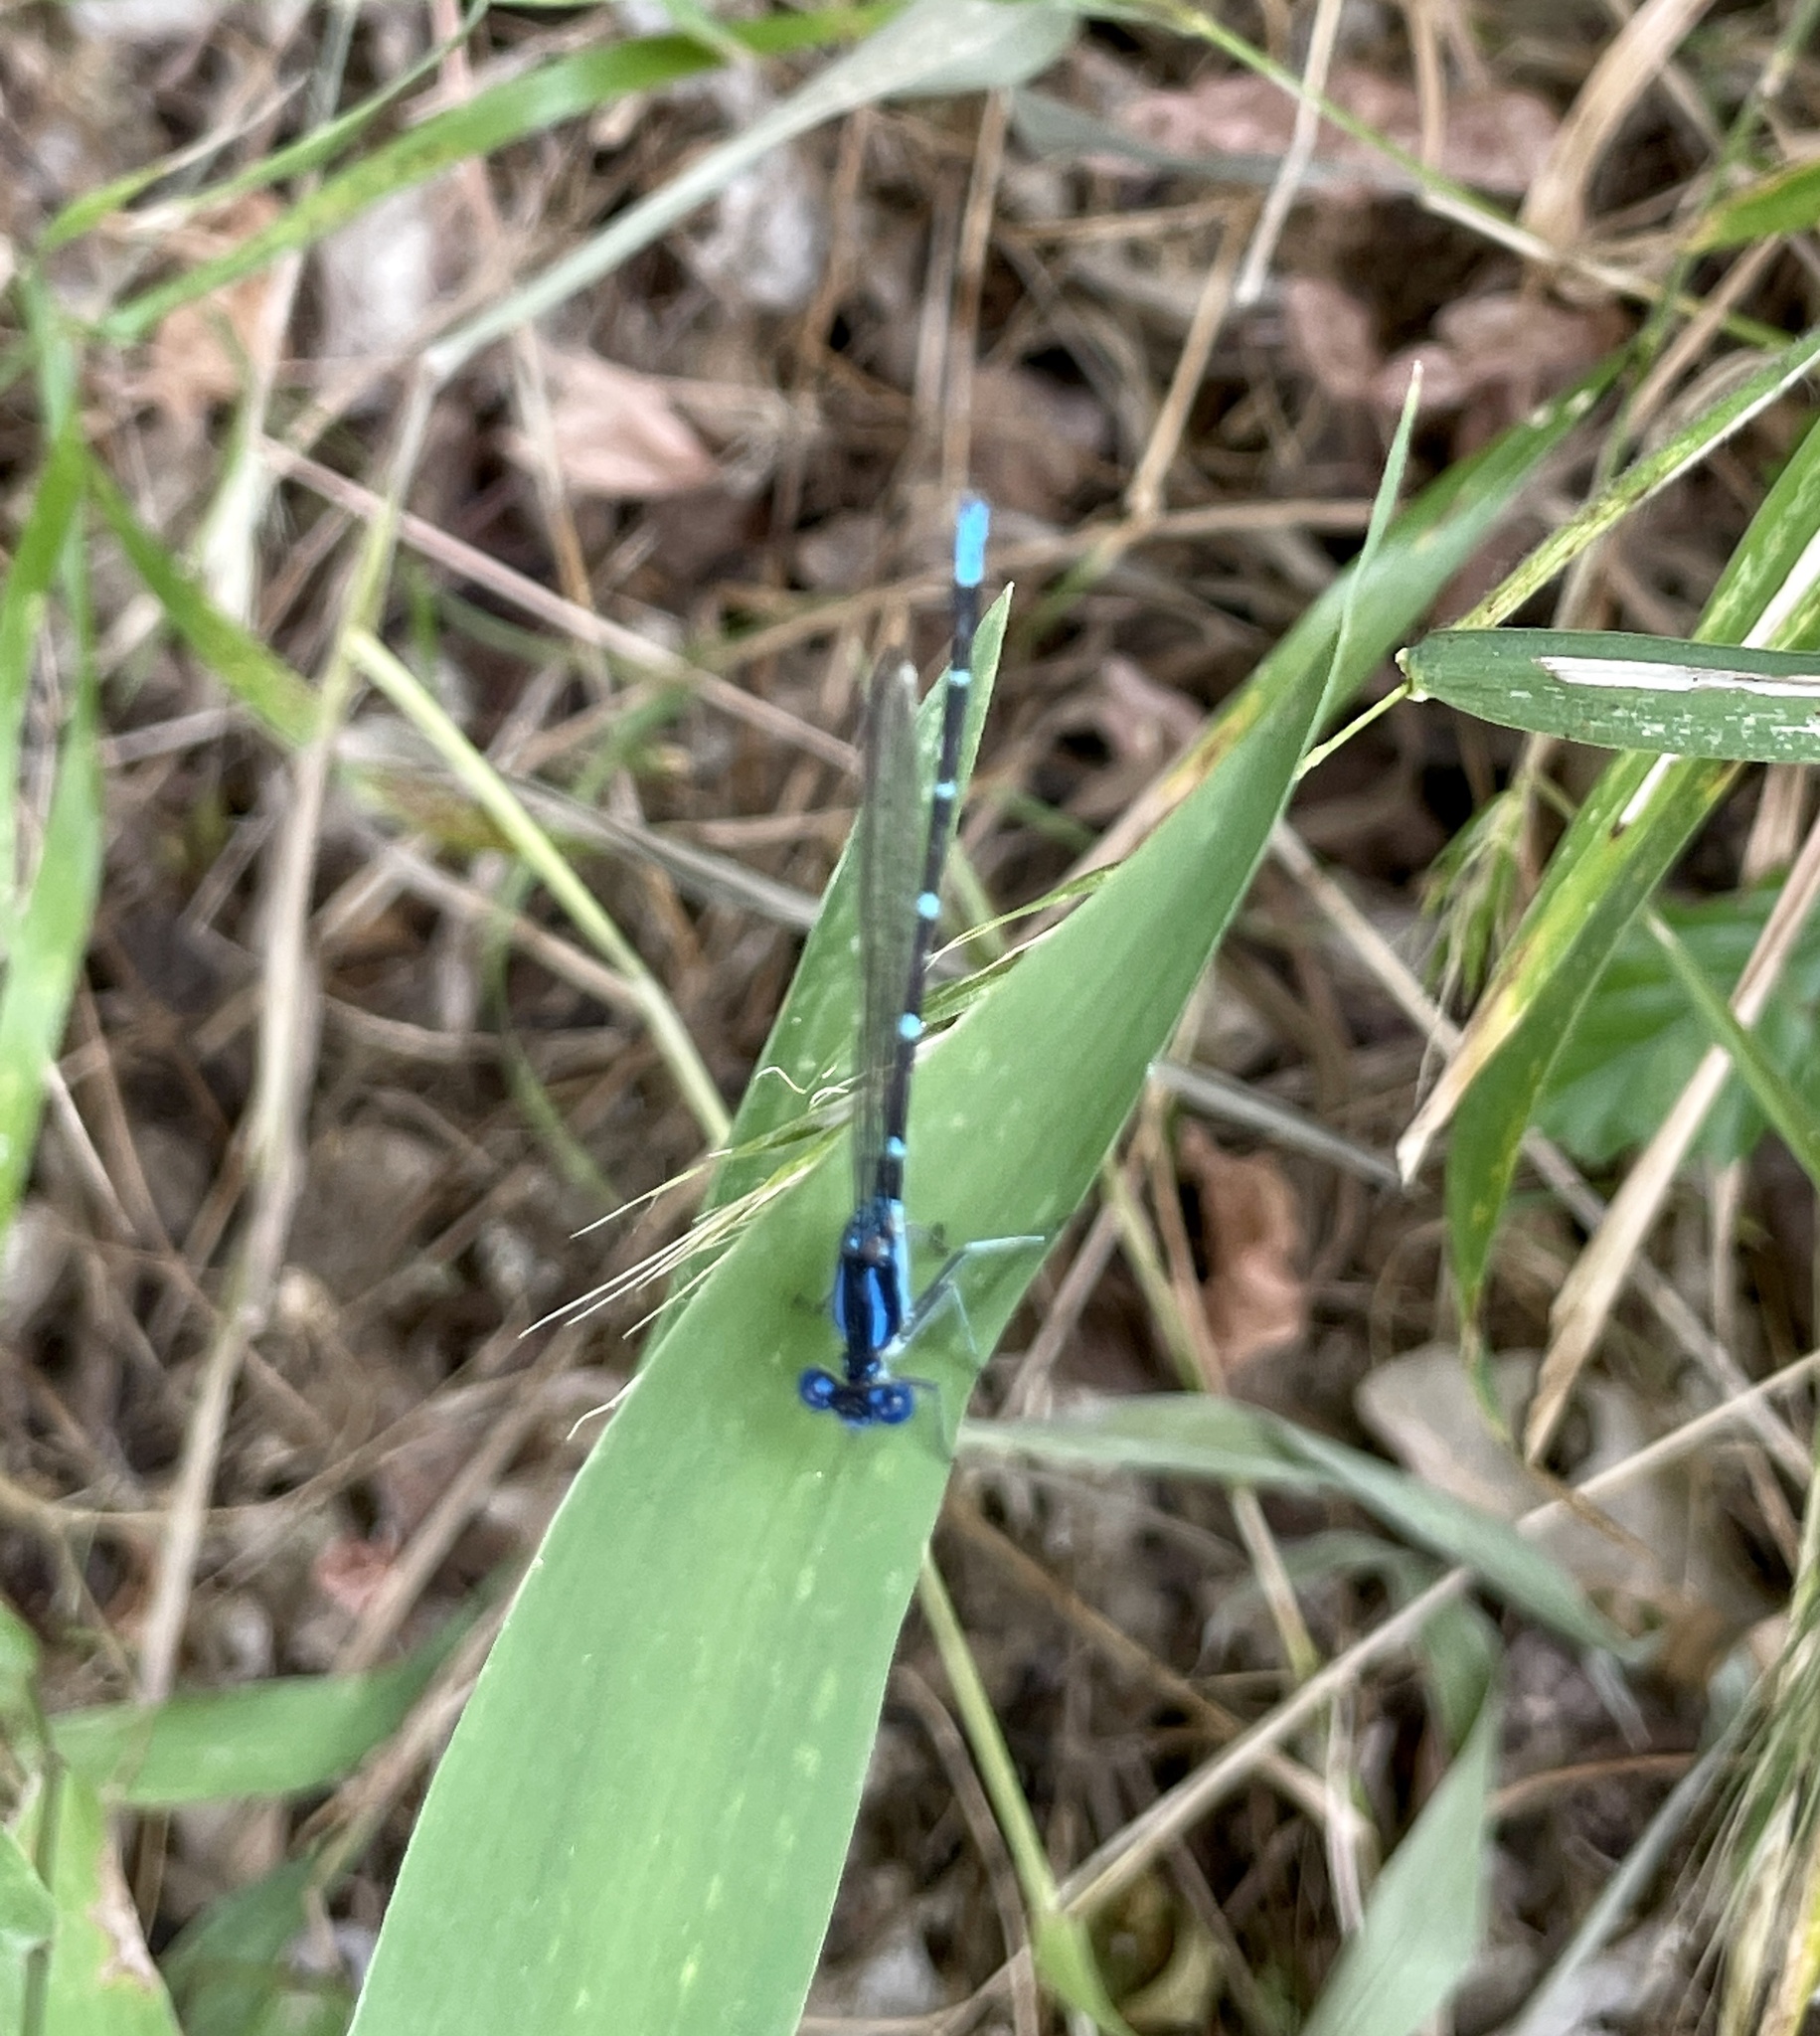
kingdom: Animalia
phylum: Arthropoda
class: Insecta
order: Odonata
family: Coenagrionidae
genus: Argia
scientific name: Argia sedula
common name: Blue-ringed dancer
